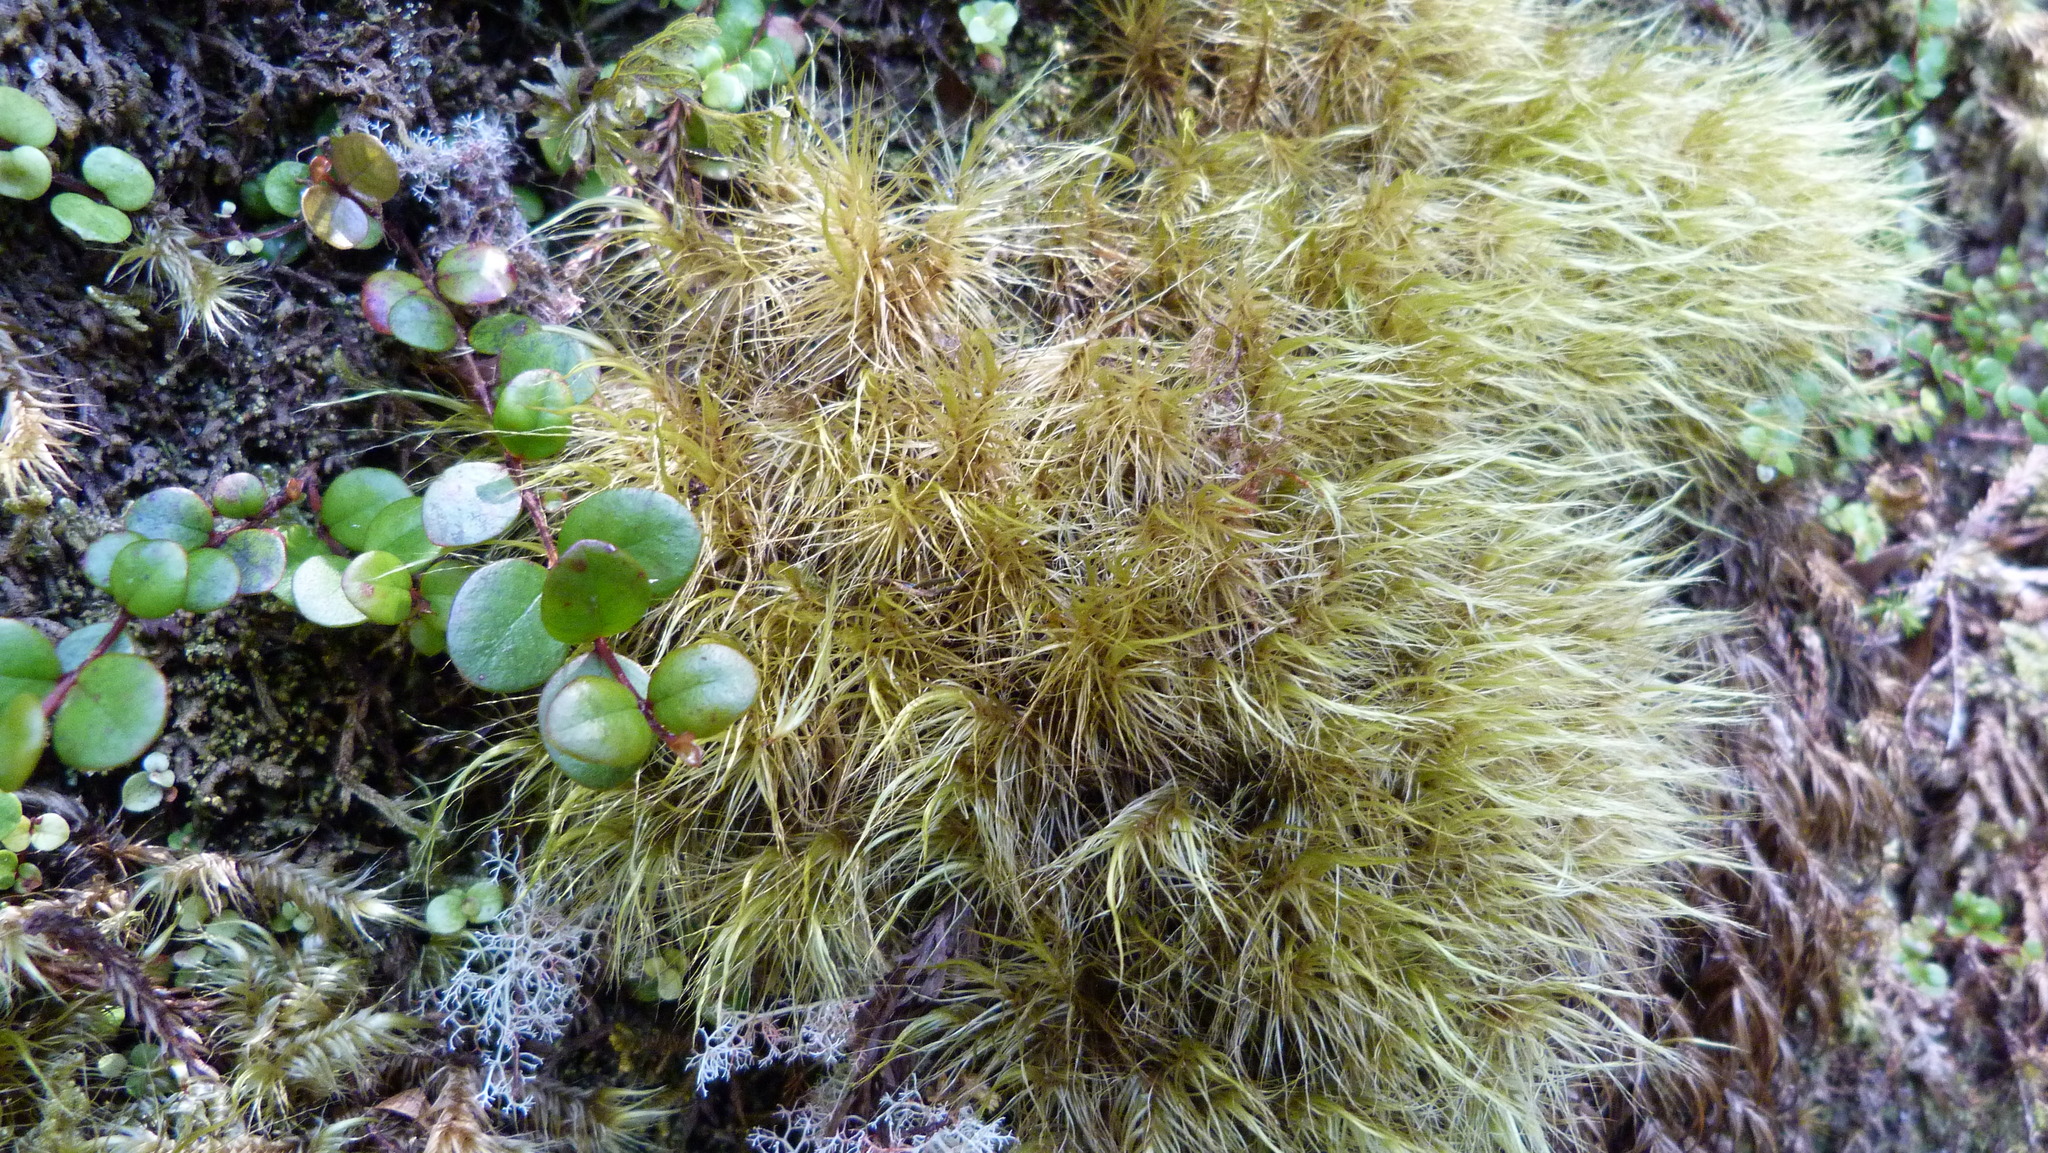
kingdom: Plantae
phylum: Bryophyta
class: Bryopsida
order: Dicranales
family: Dicranaceae
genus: Dicranoloma
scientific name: Dicranoloma robustum
